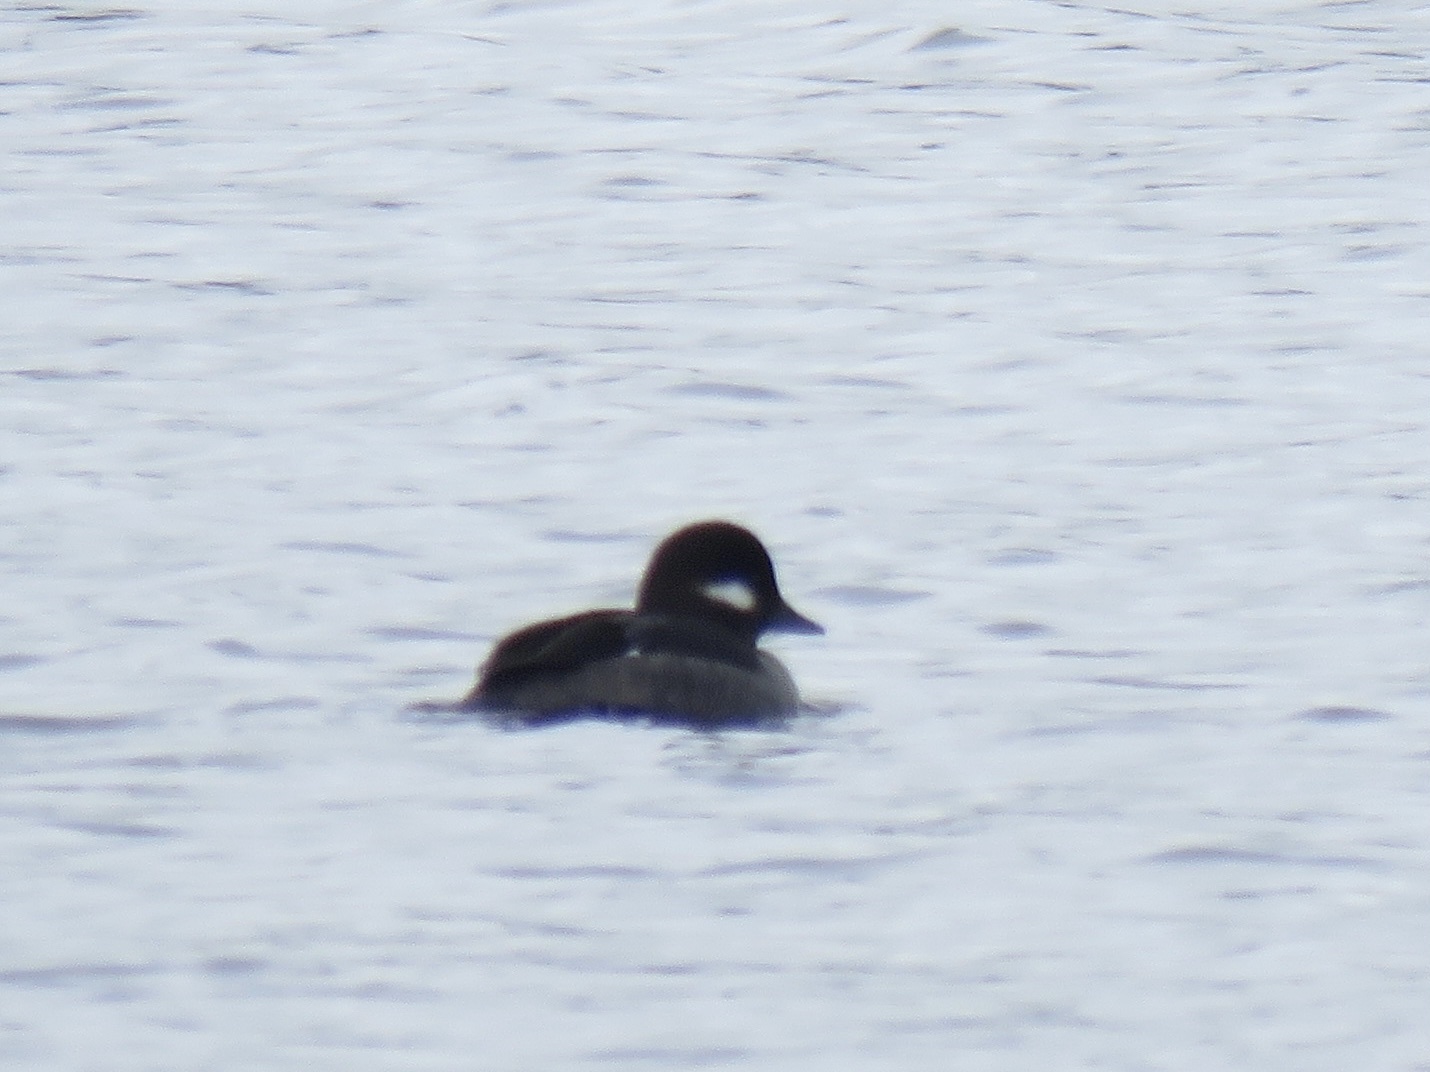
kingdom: Animalia
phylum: Chordata
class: Aves
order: Anseriformes
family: Anatidae
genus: Bucephala
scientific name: Bucephala albeola
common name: Bufflehead
